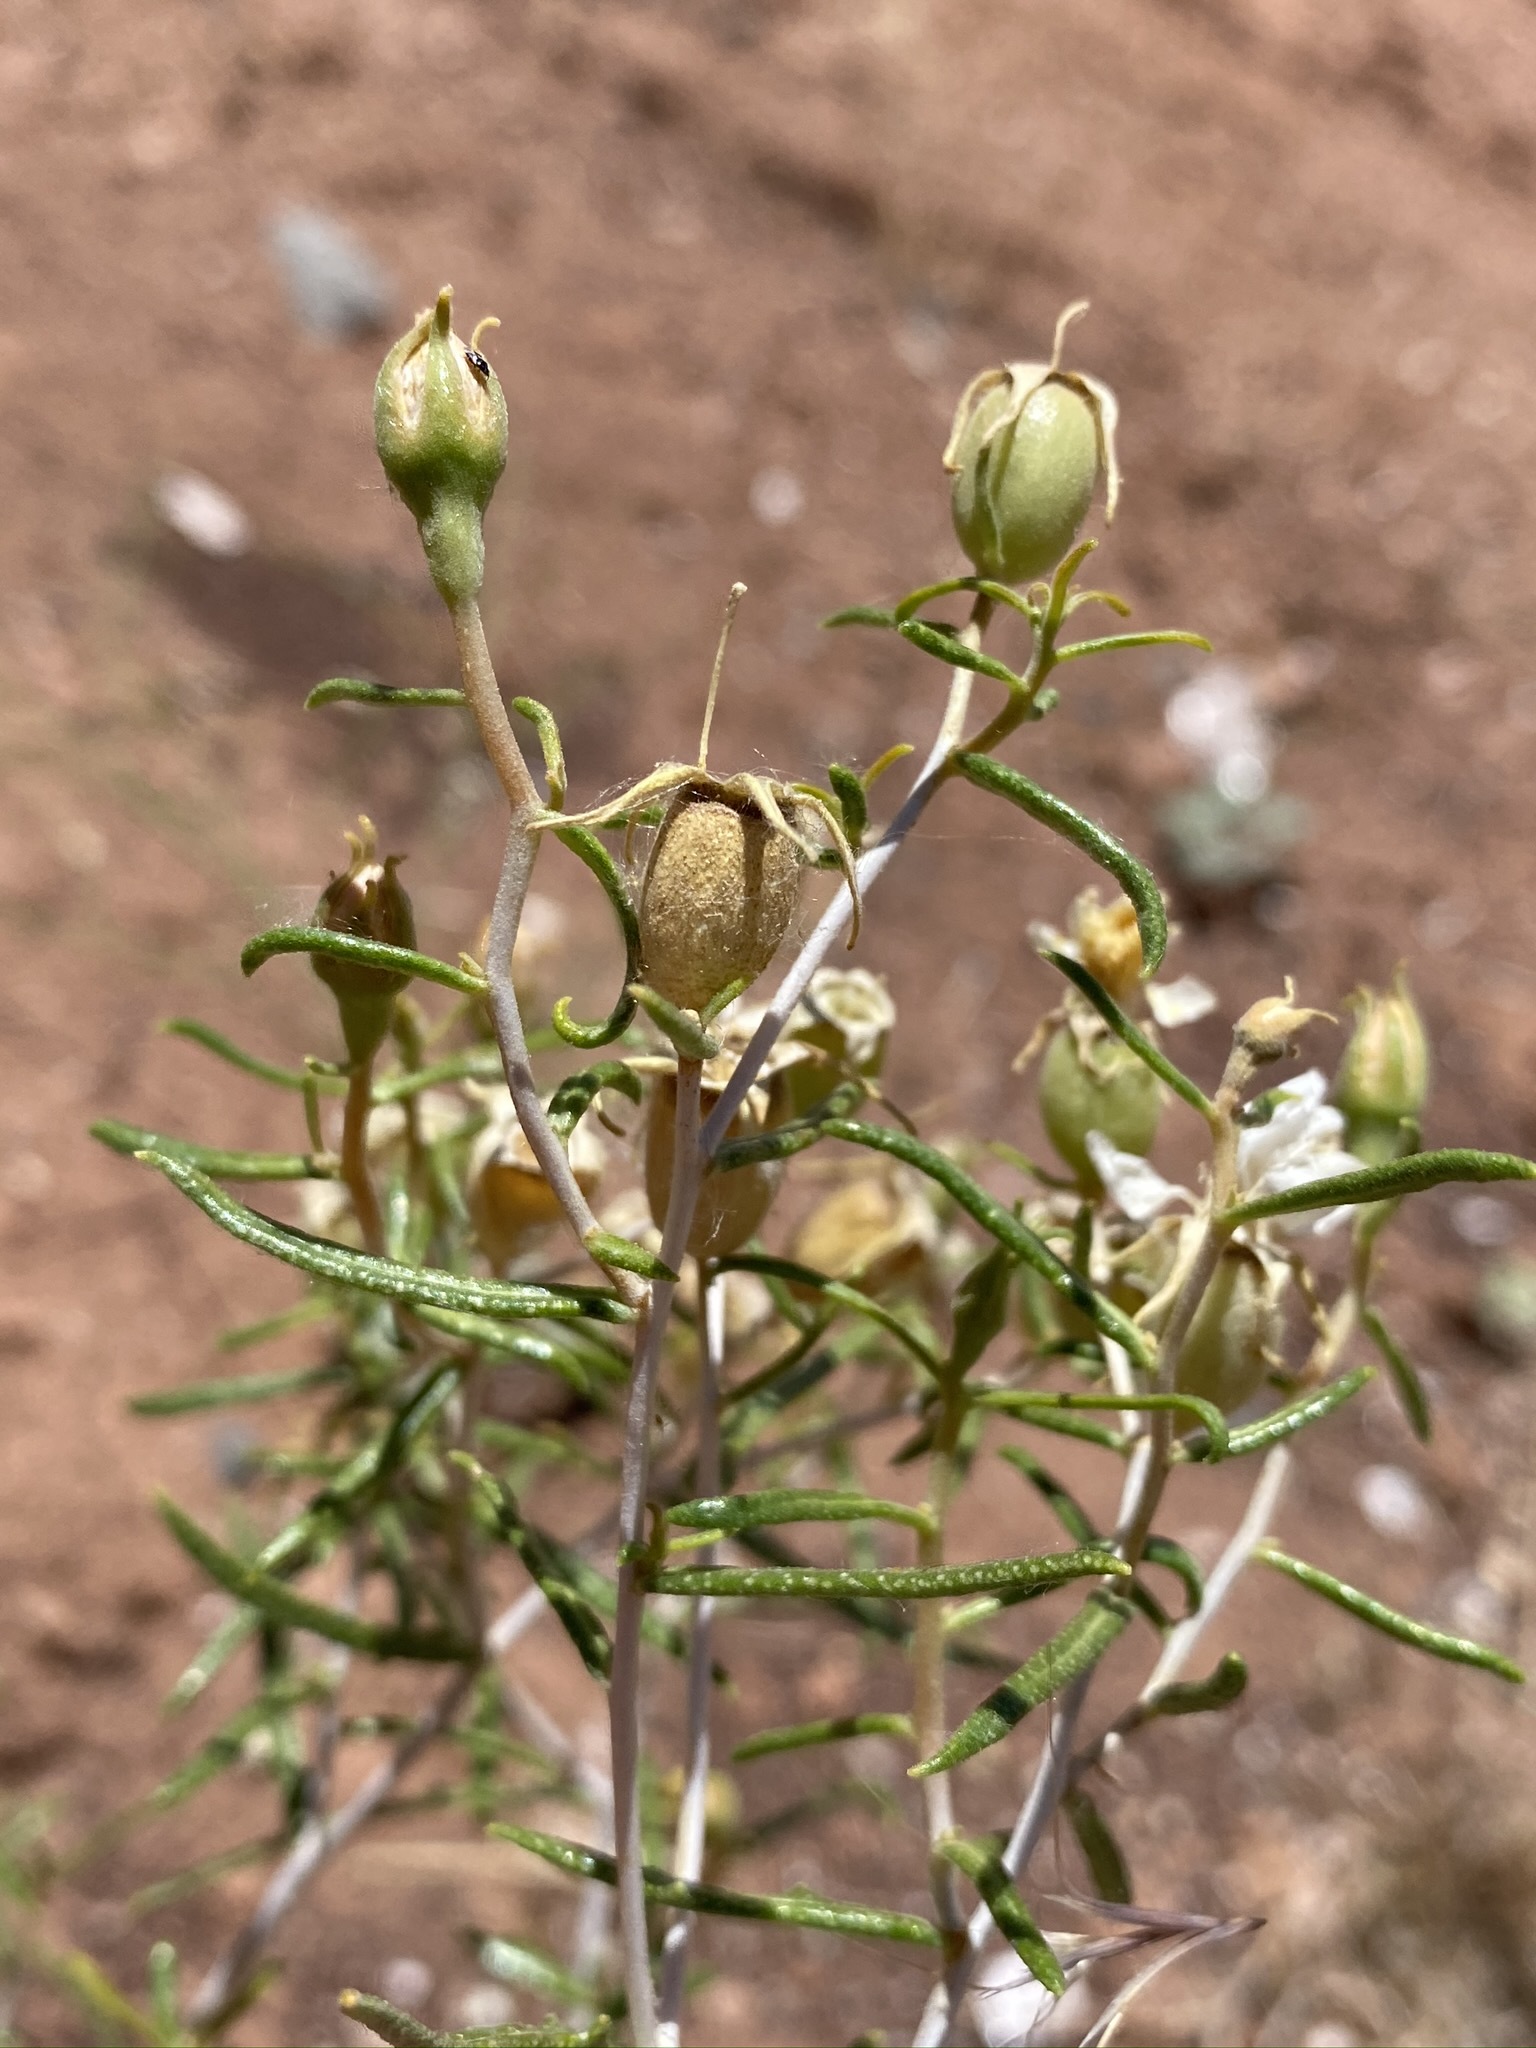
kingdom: Plantae
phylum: Tracheophyta
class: Magnoliopsida
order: Cornales
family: Loasaceae
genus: Mentzelia
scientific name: Mentzelia memorabilis
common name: September 11 stickleaf
